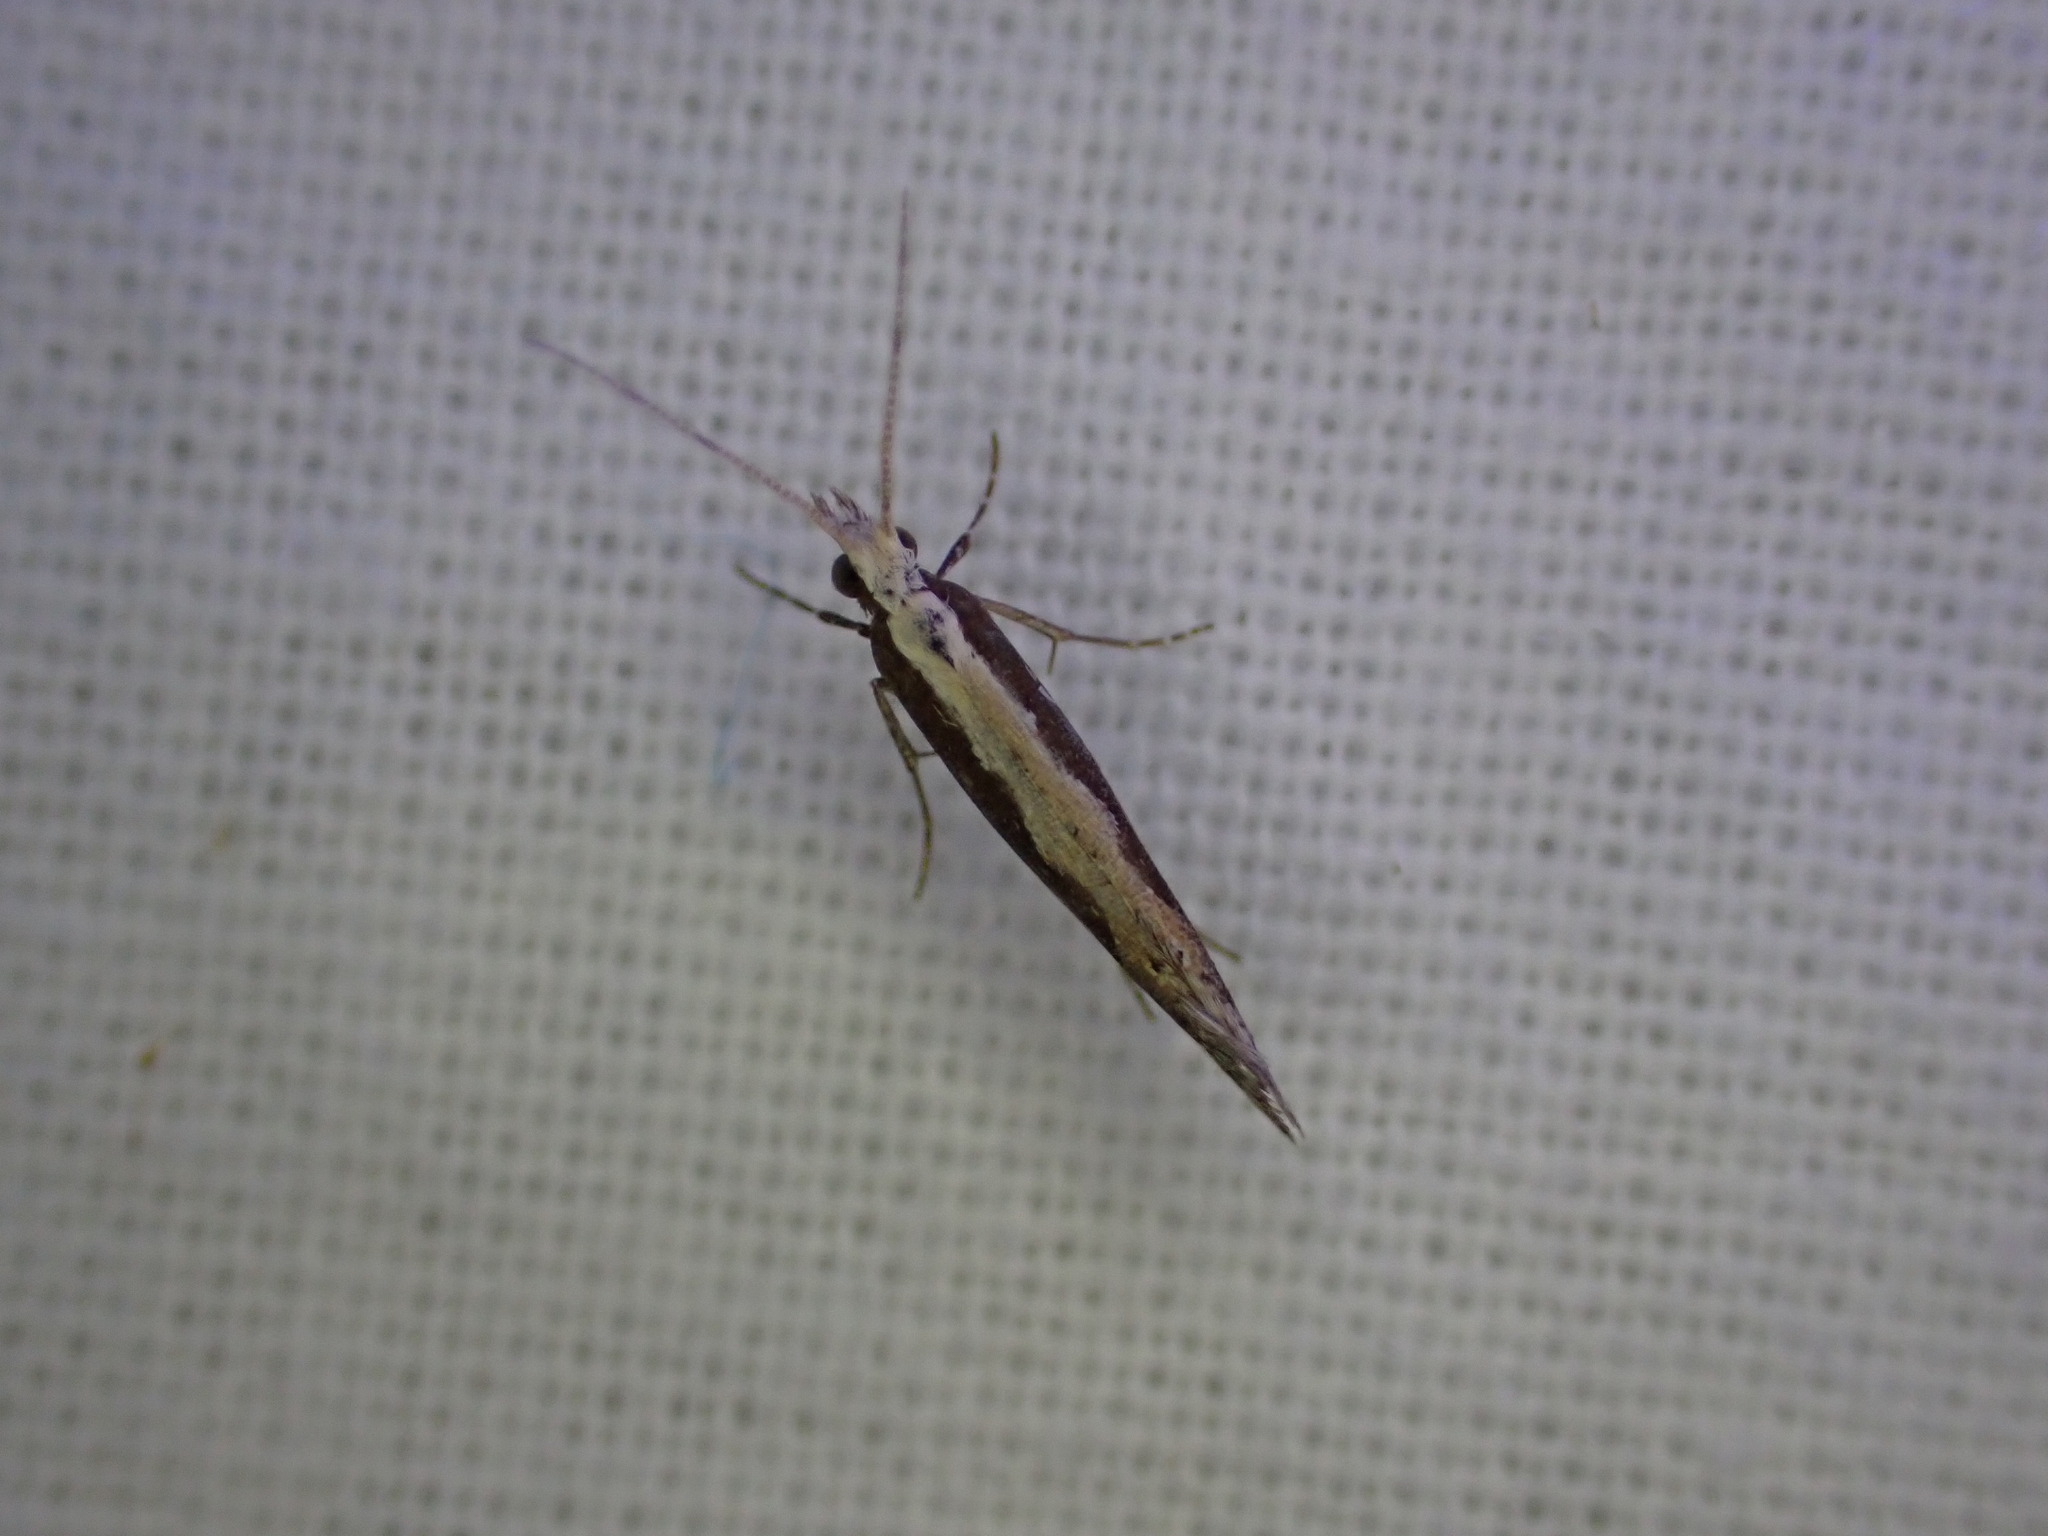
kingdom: Animalia
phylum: Arthropoda
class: Insecta
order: Lepidoptera
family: Plutellidae
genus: Plutella
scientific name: Plutella xylostella
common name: Diamond-back moth
